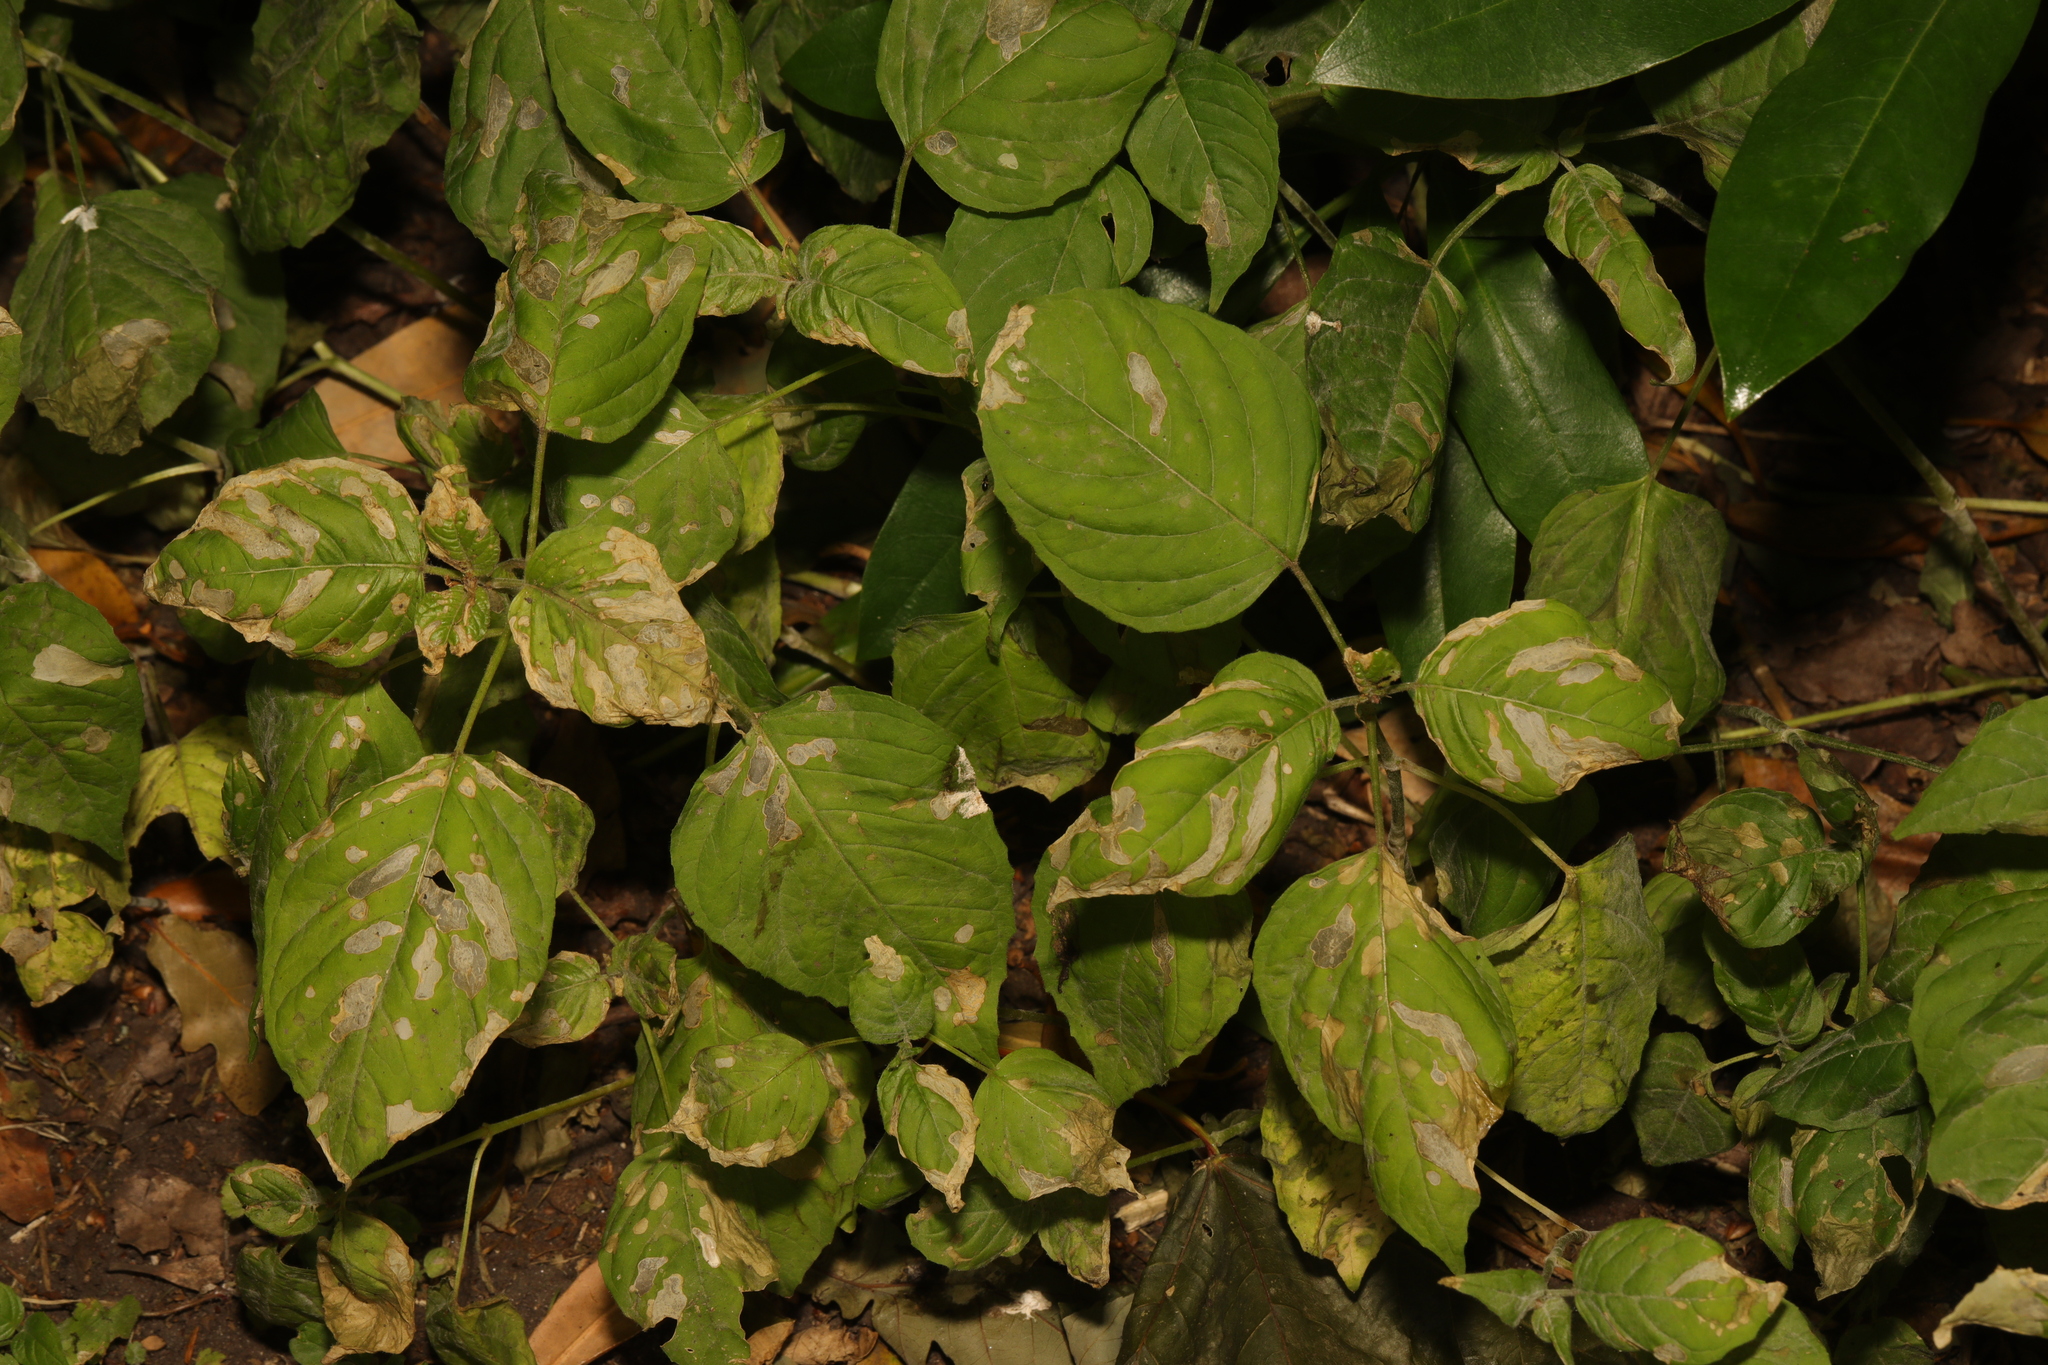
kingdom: Plantae
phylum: Tracheophyta
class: Magnoliopsida
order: Myrtales
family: Onagraceae
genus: Circaea
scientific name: Circaea lutetiana
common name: Enchanter's-nightshade
